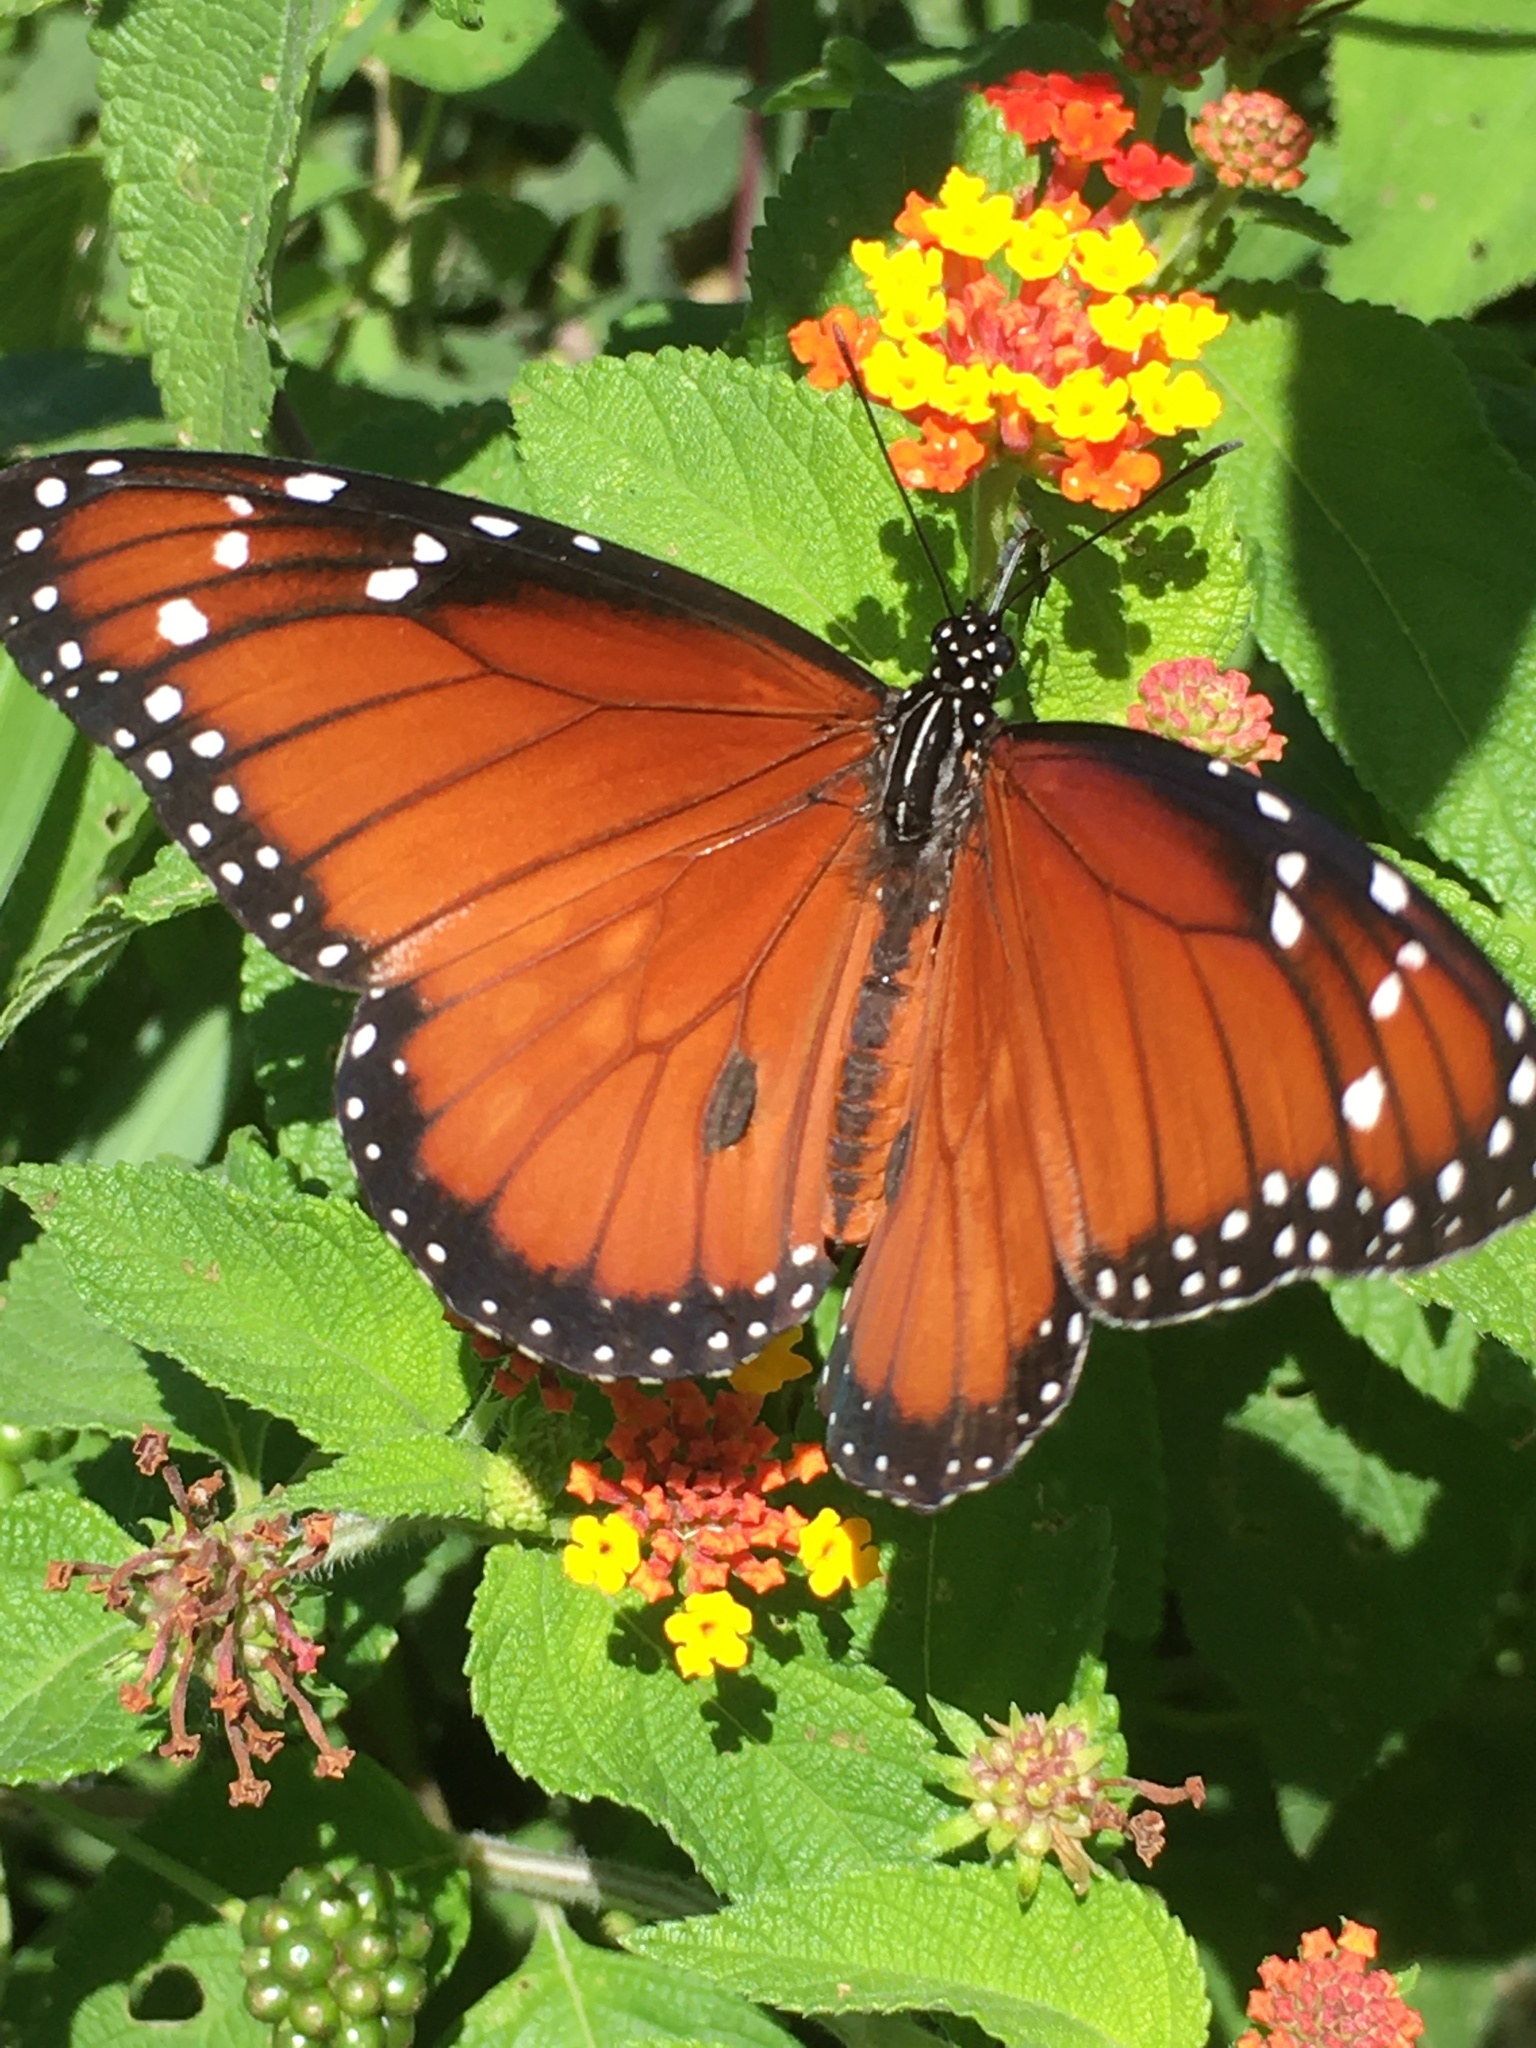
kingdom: Animalia
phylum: Arthropoda
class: Insecta
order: Lepidoptera
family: Nymphalidae
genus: Danaus
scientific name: Danaus eresimus
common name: Soldier
